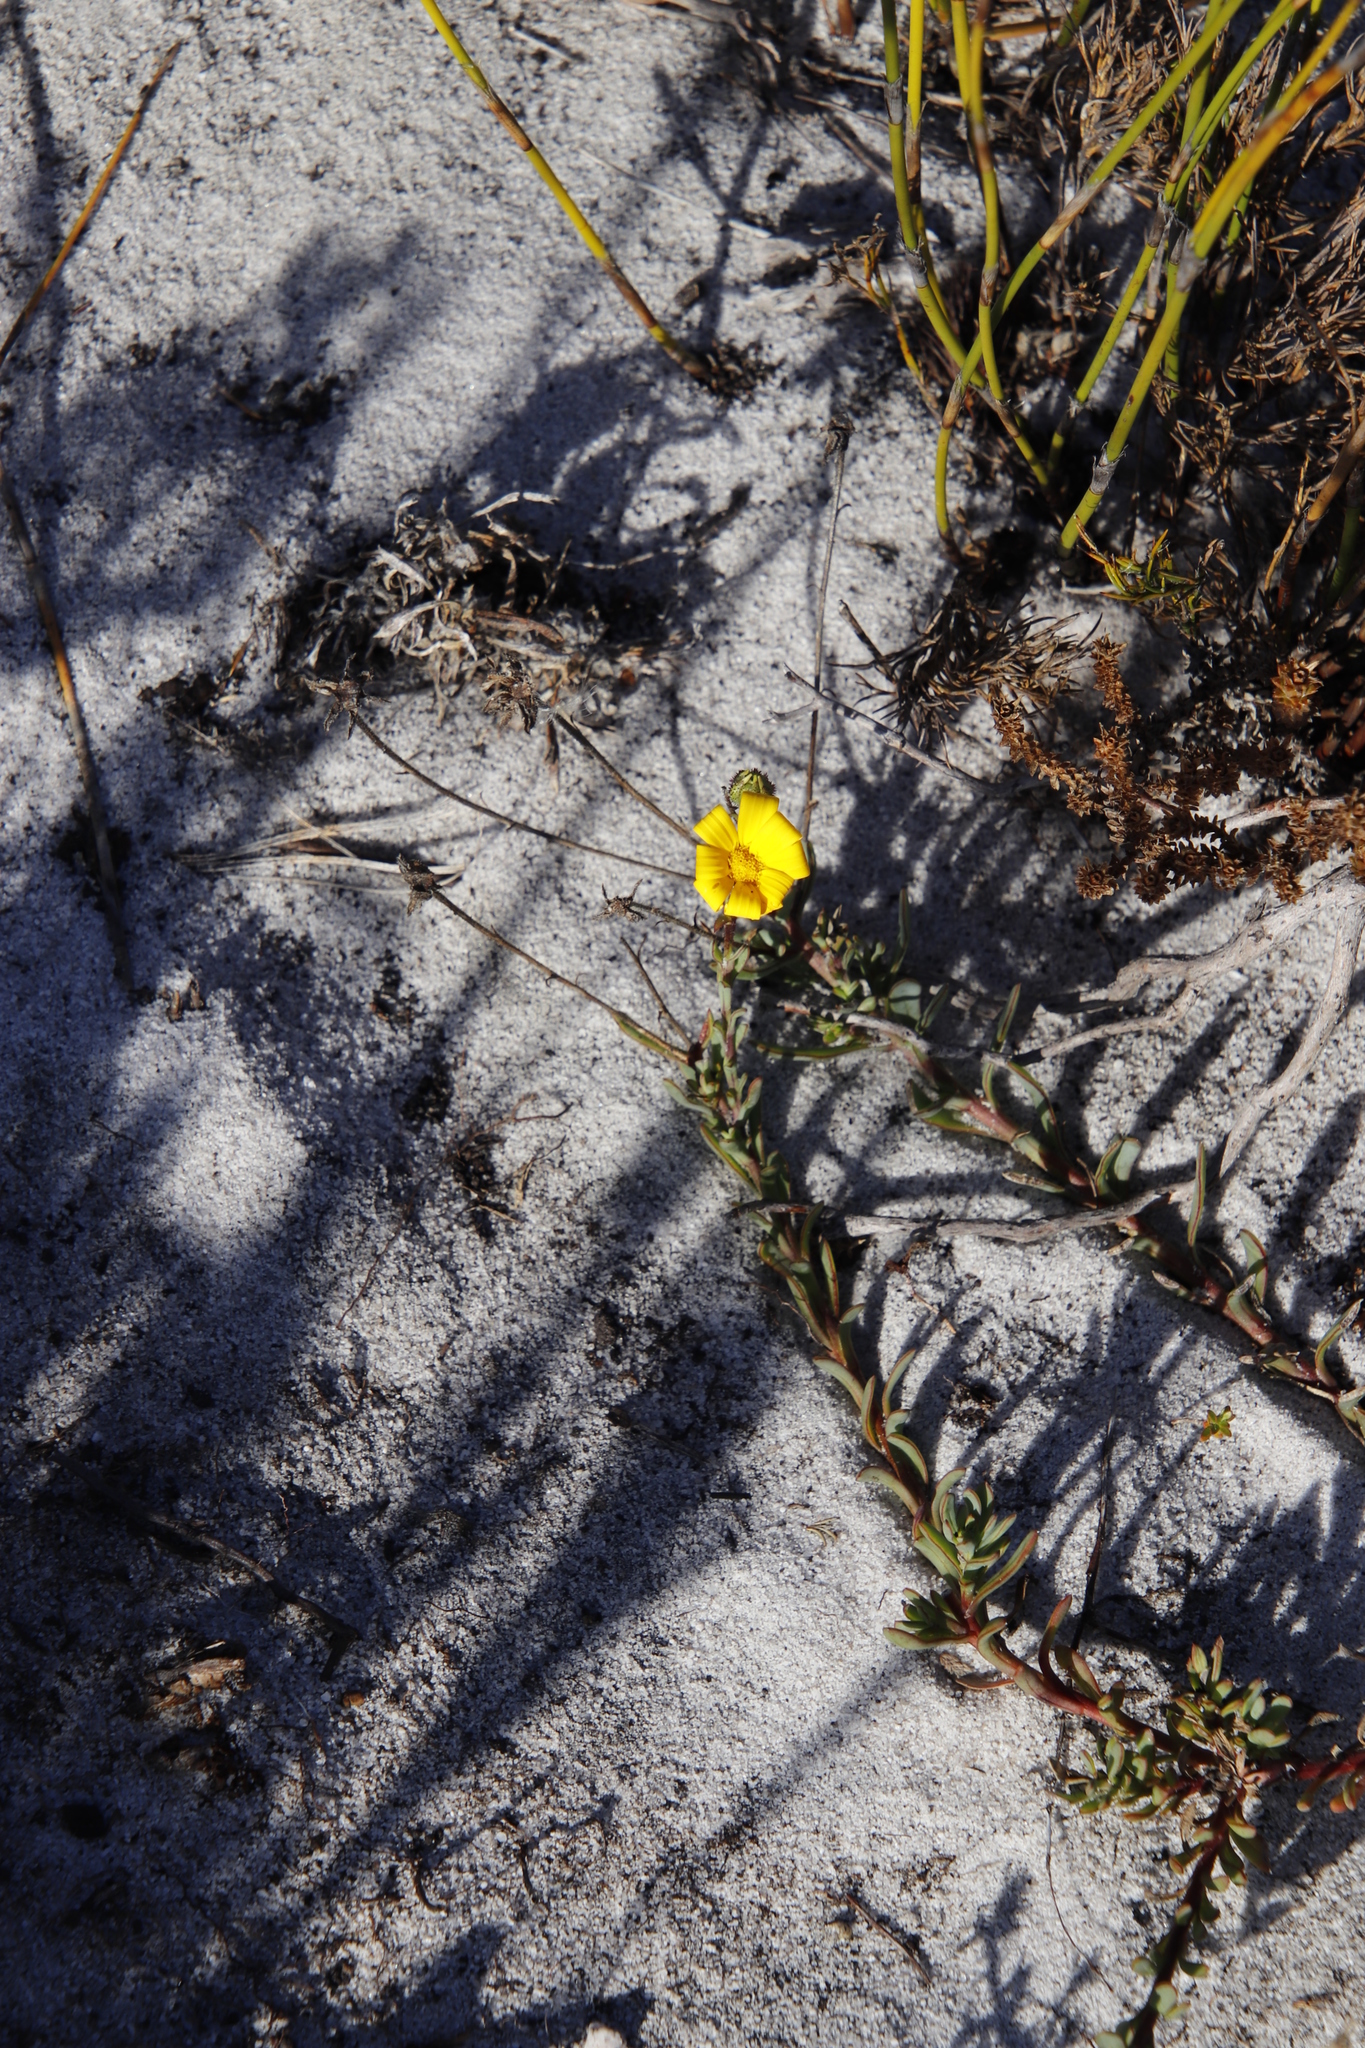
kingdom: Plantae
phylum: Tracheophyta
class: Magnoliopsida
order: Asterales
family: Asteraceae
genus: Osteospermum
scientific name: Osteospermum polygaloides
